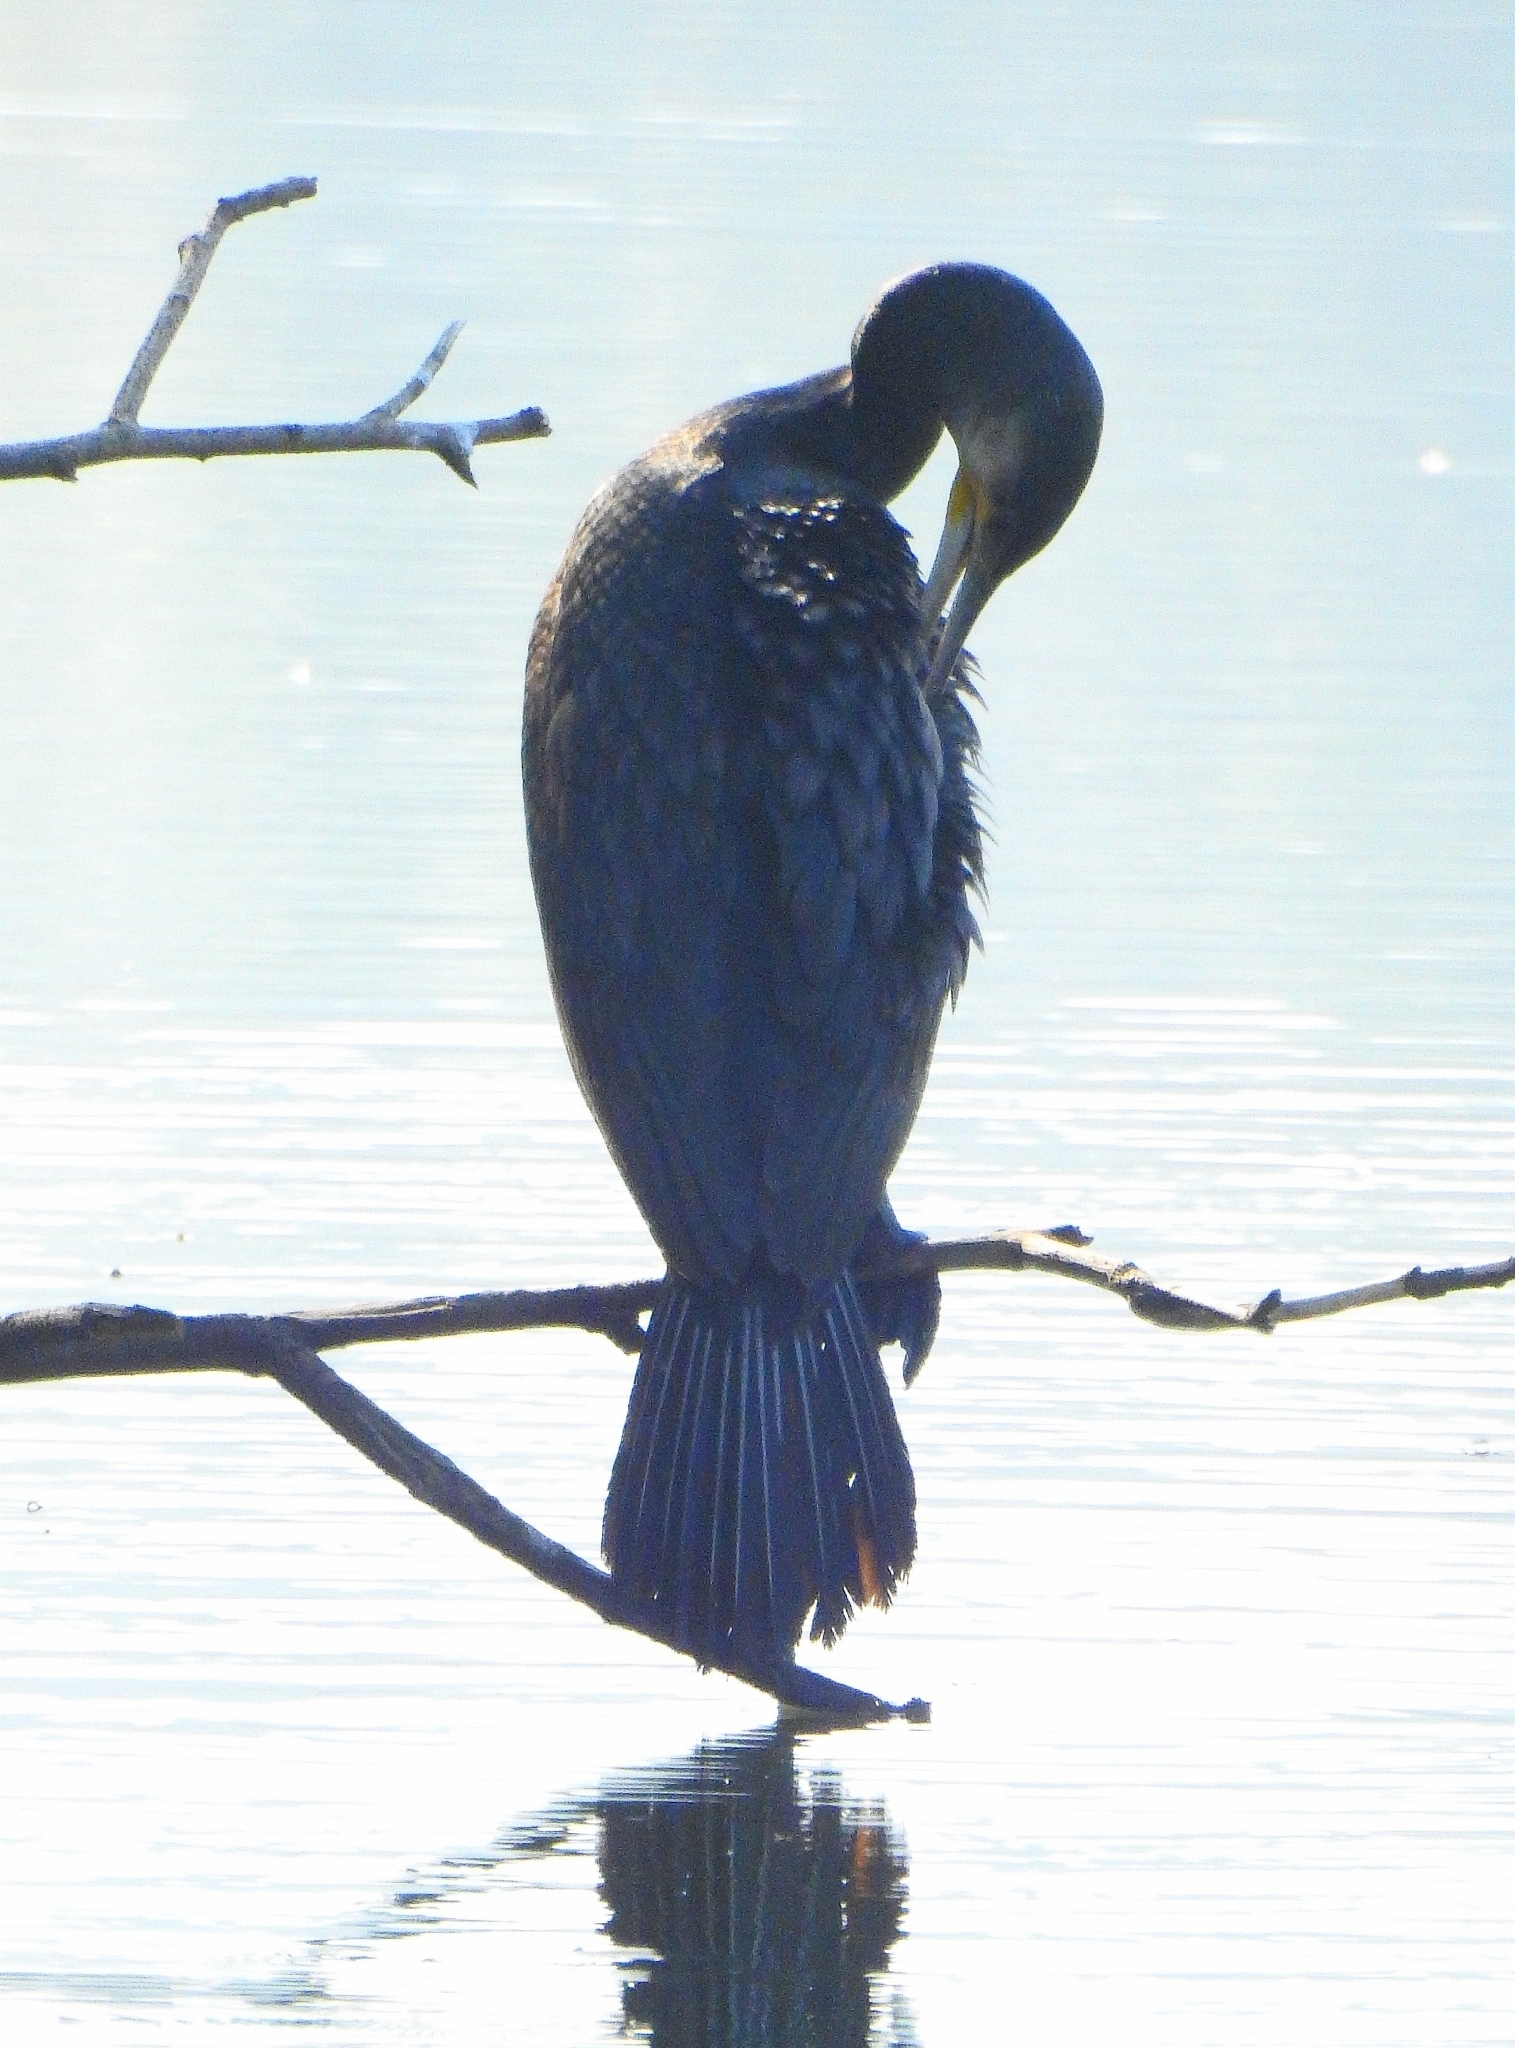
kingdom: Animalia
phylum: Chordata
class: Aves
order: Suliformes
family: Phalacrocoracidae
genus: Phalacrocorax
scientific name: Phalacrocorax carbo
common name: Great cormorant
